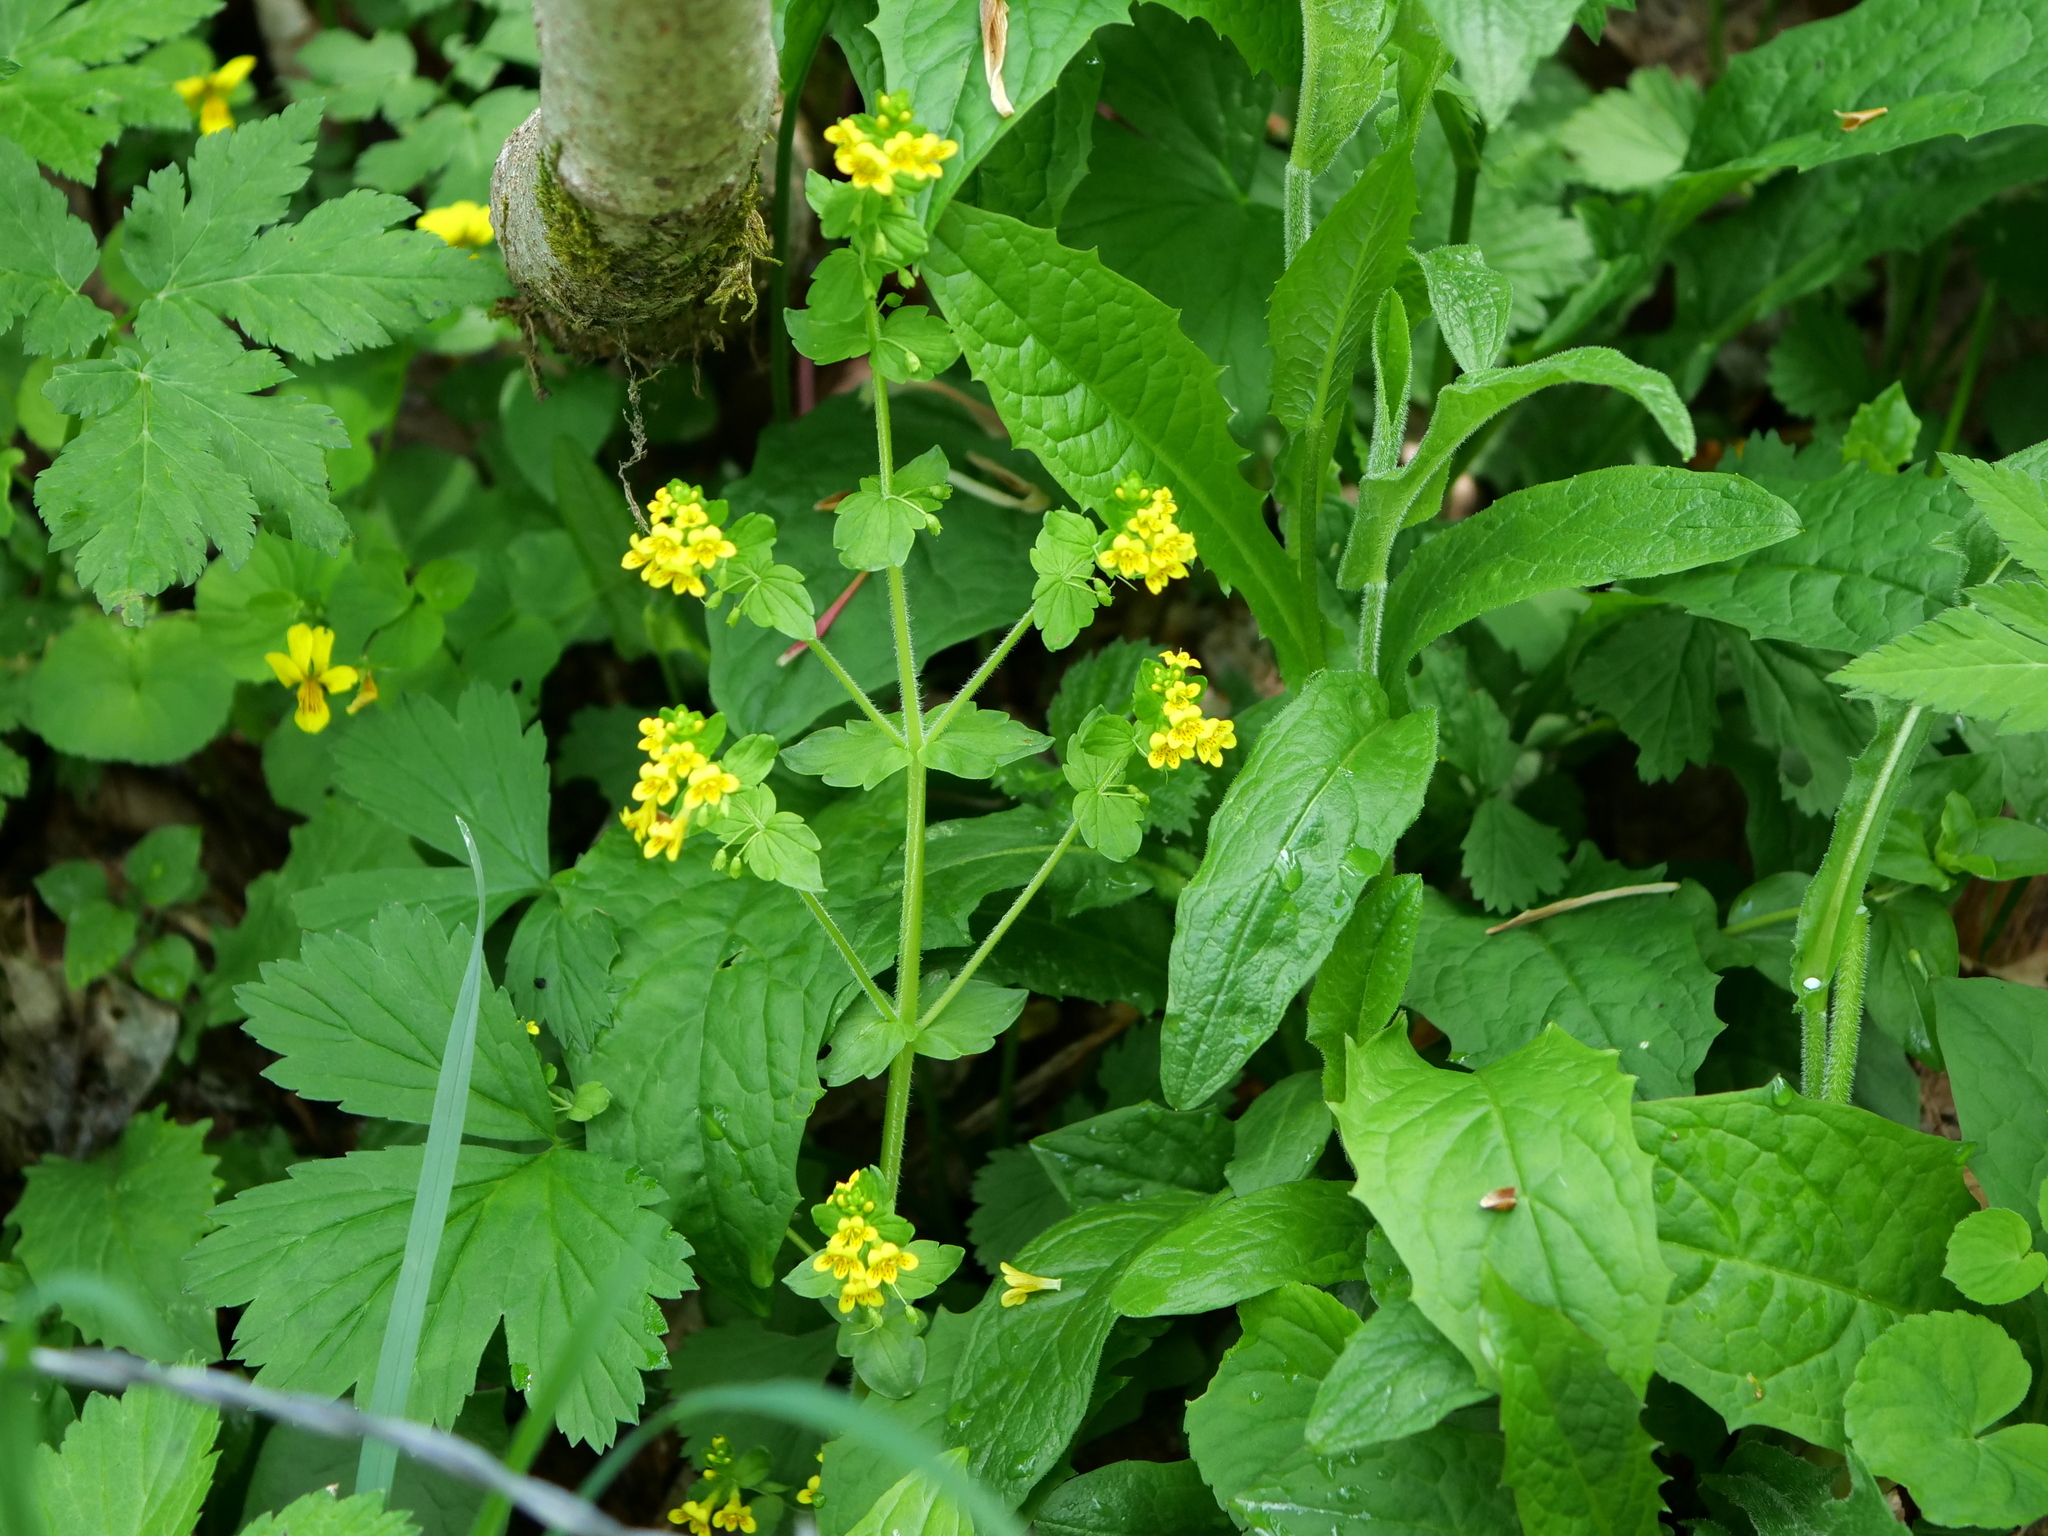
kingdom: Plantae
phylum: Tracheophyta
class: Magnoliopsida
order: Lamiales
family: Orobanchaceae
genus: Tozzia
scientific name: Tozzia alpina
